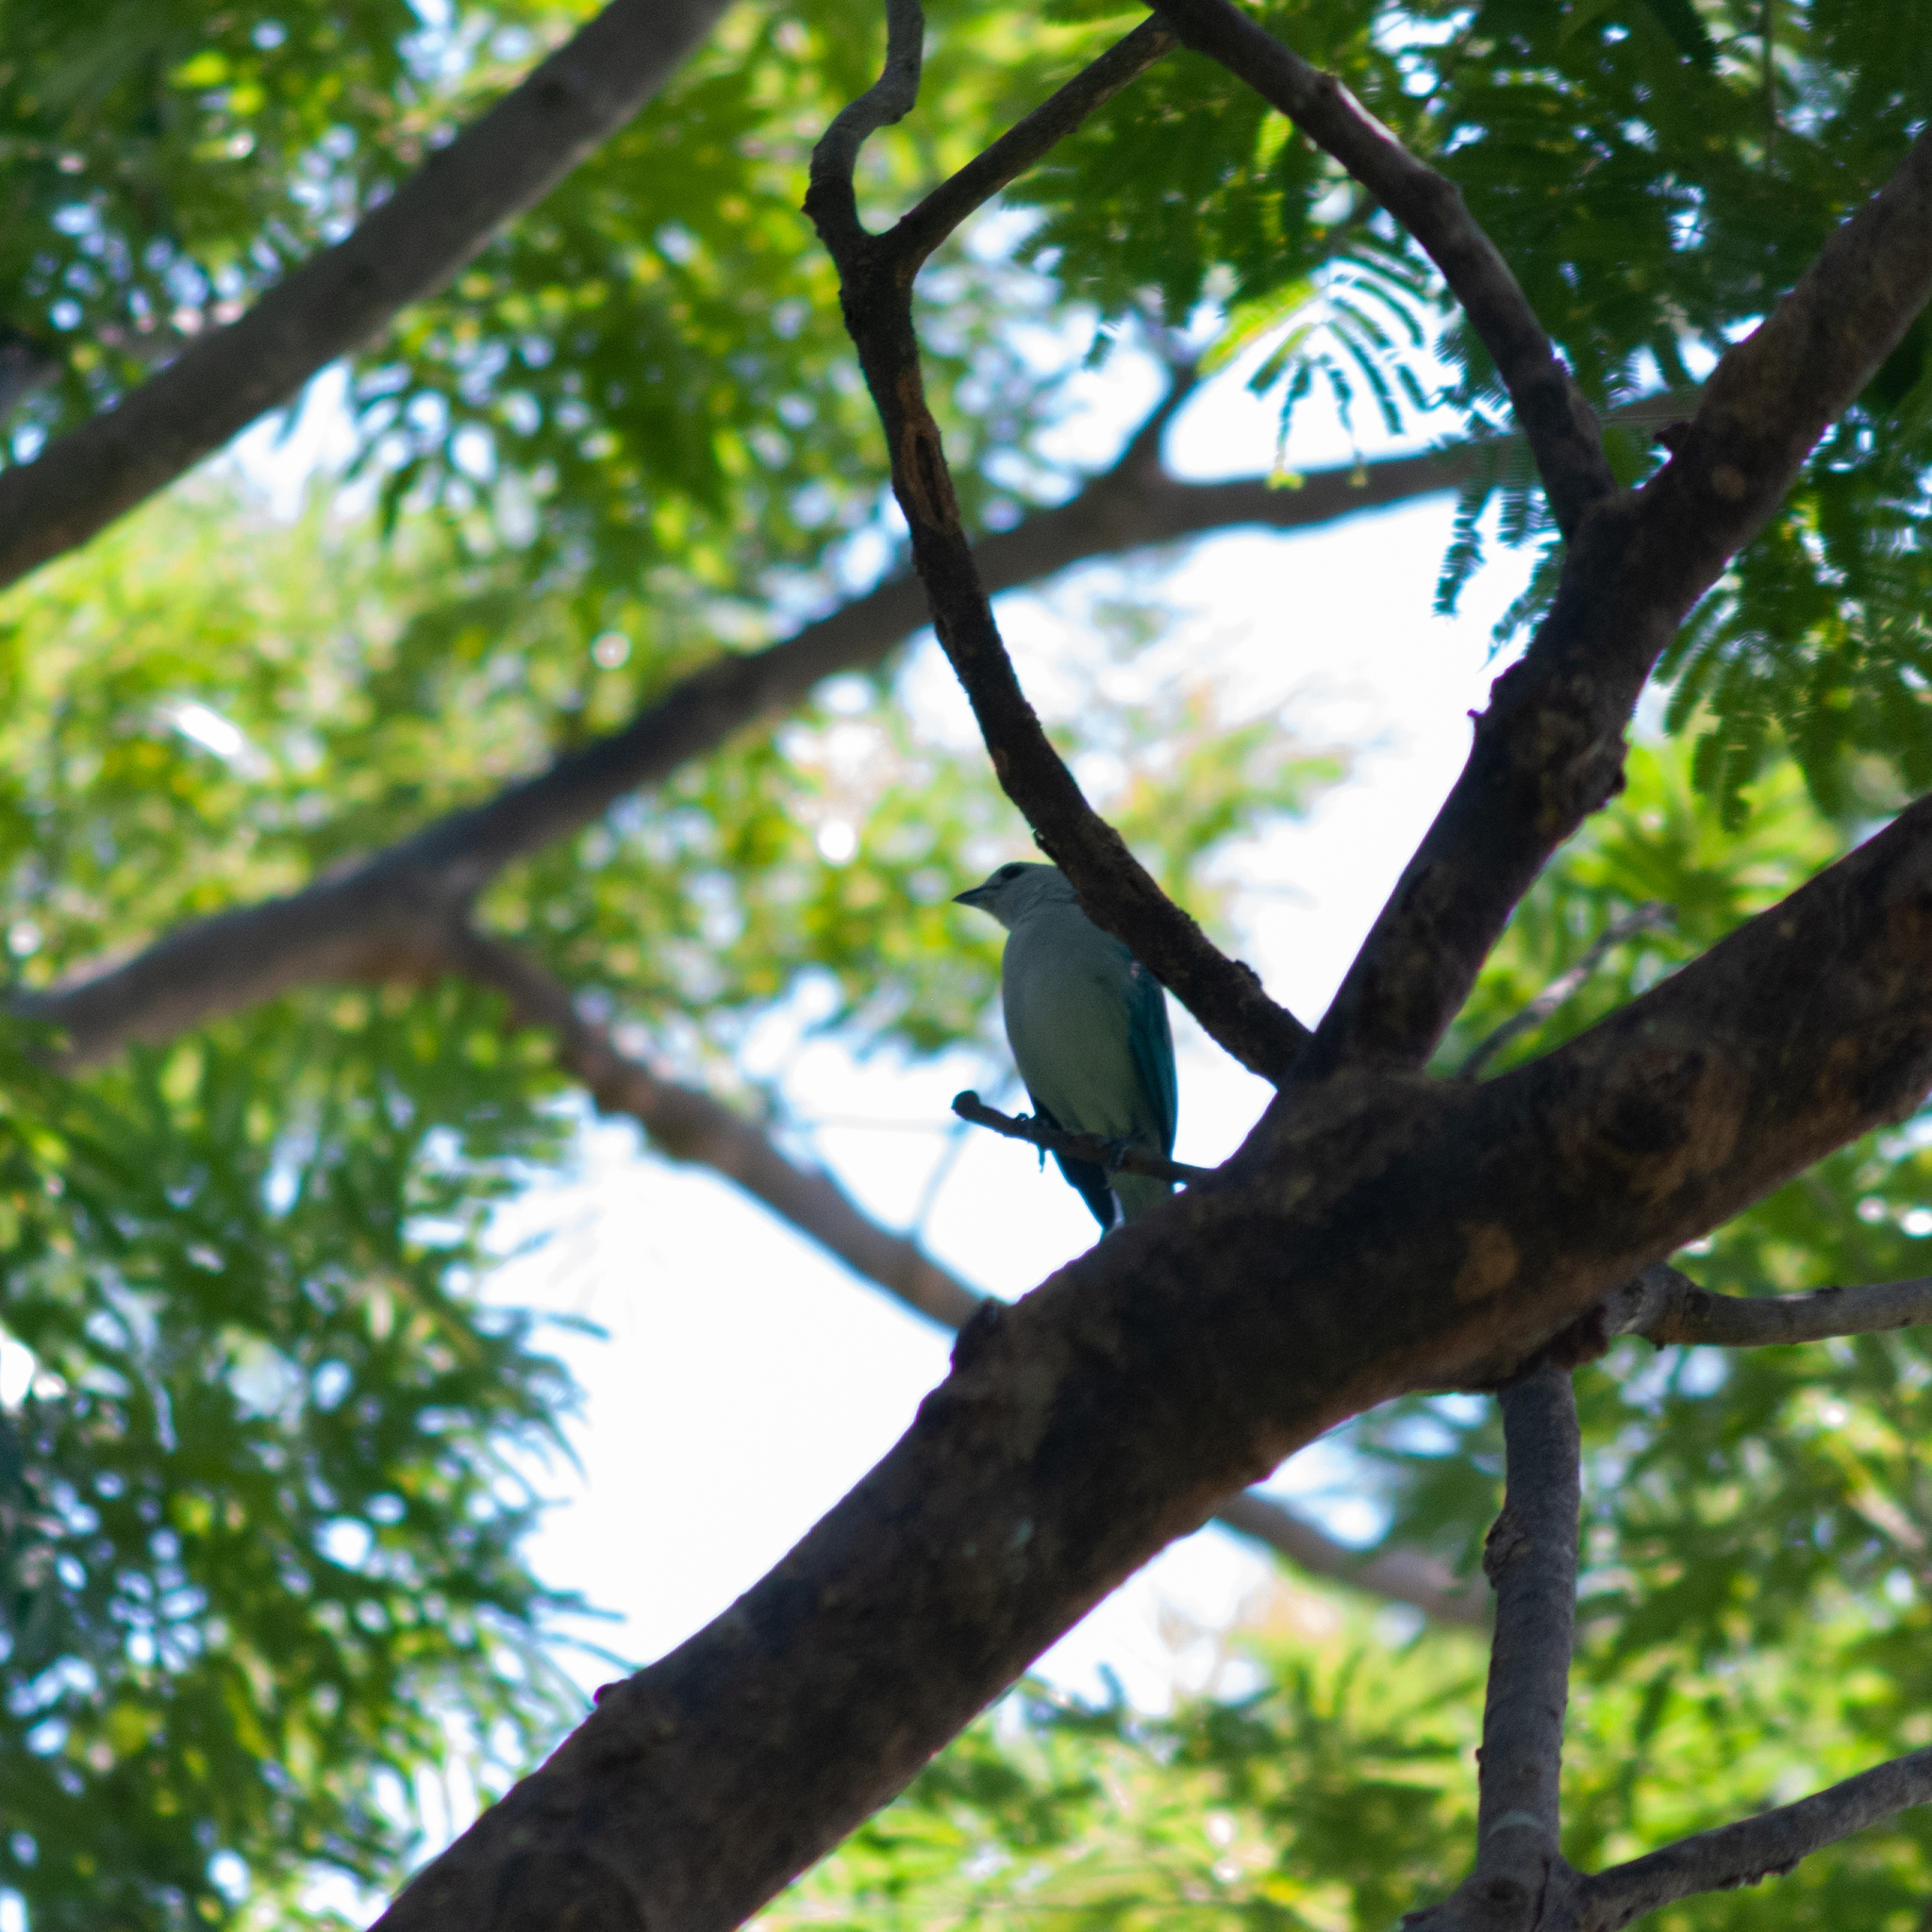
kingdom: Animalia
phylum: Chordata
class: Aves
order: Passeriformes
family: Thraupidae
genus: Thraupis
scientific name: Thraupis episcopus
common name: Blue-grey tanager
